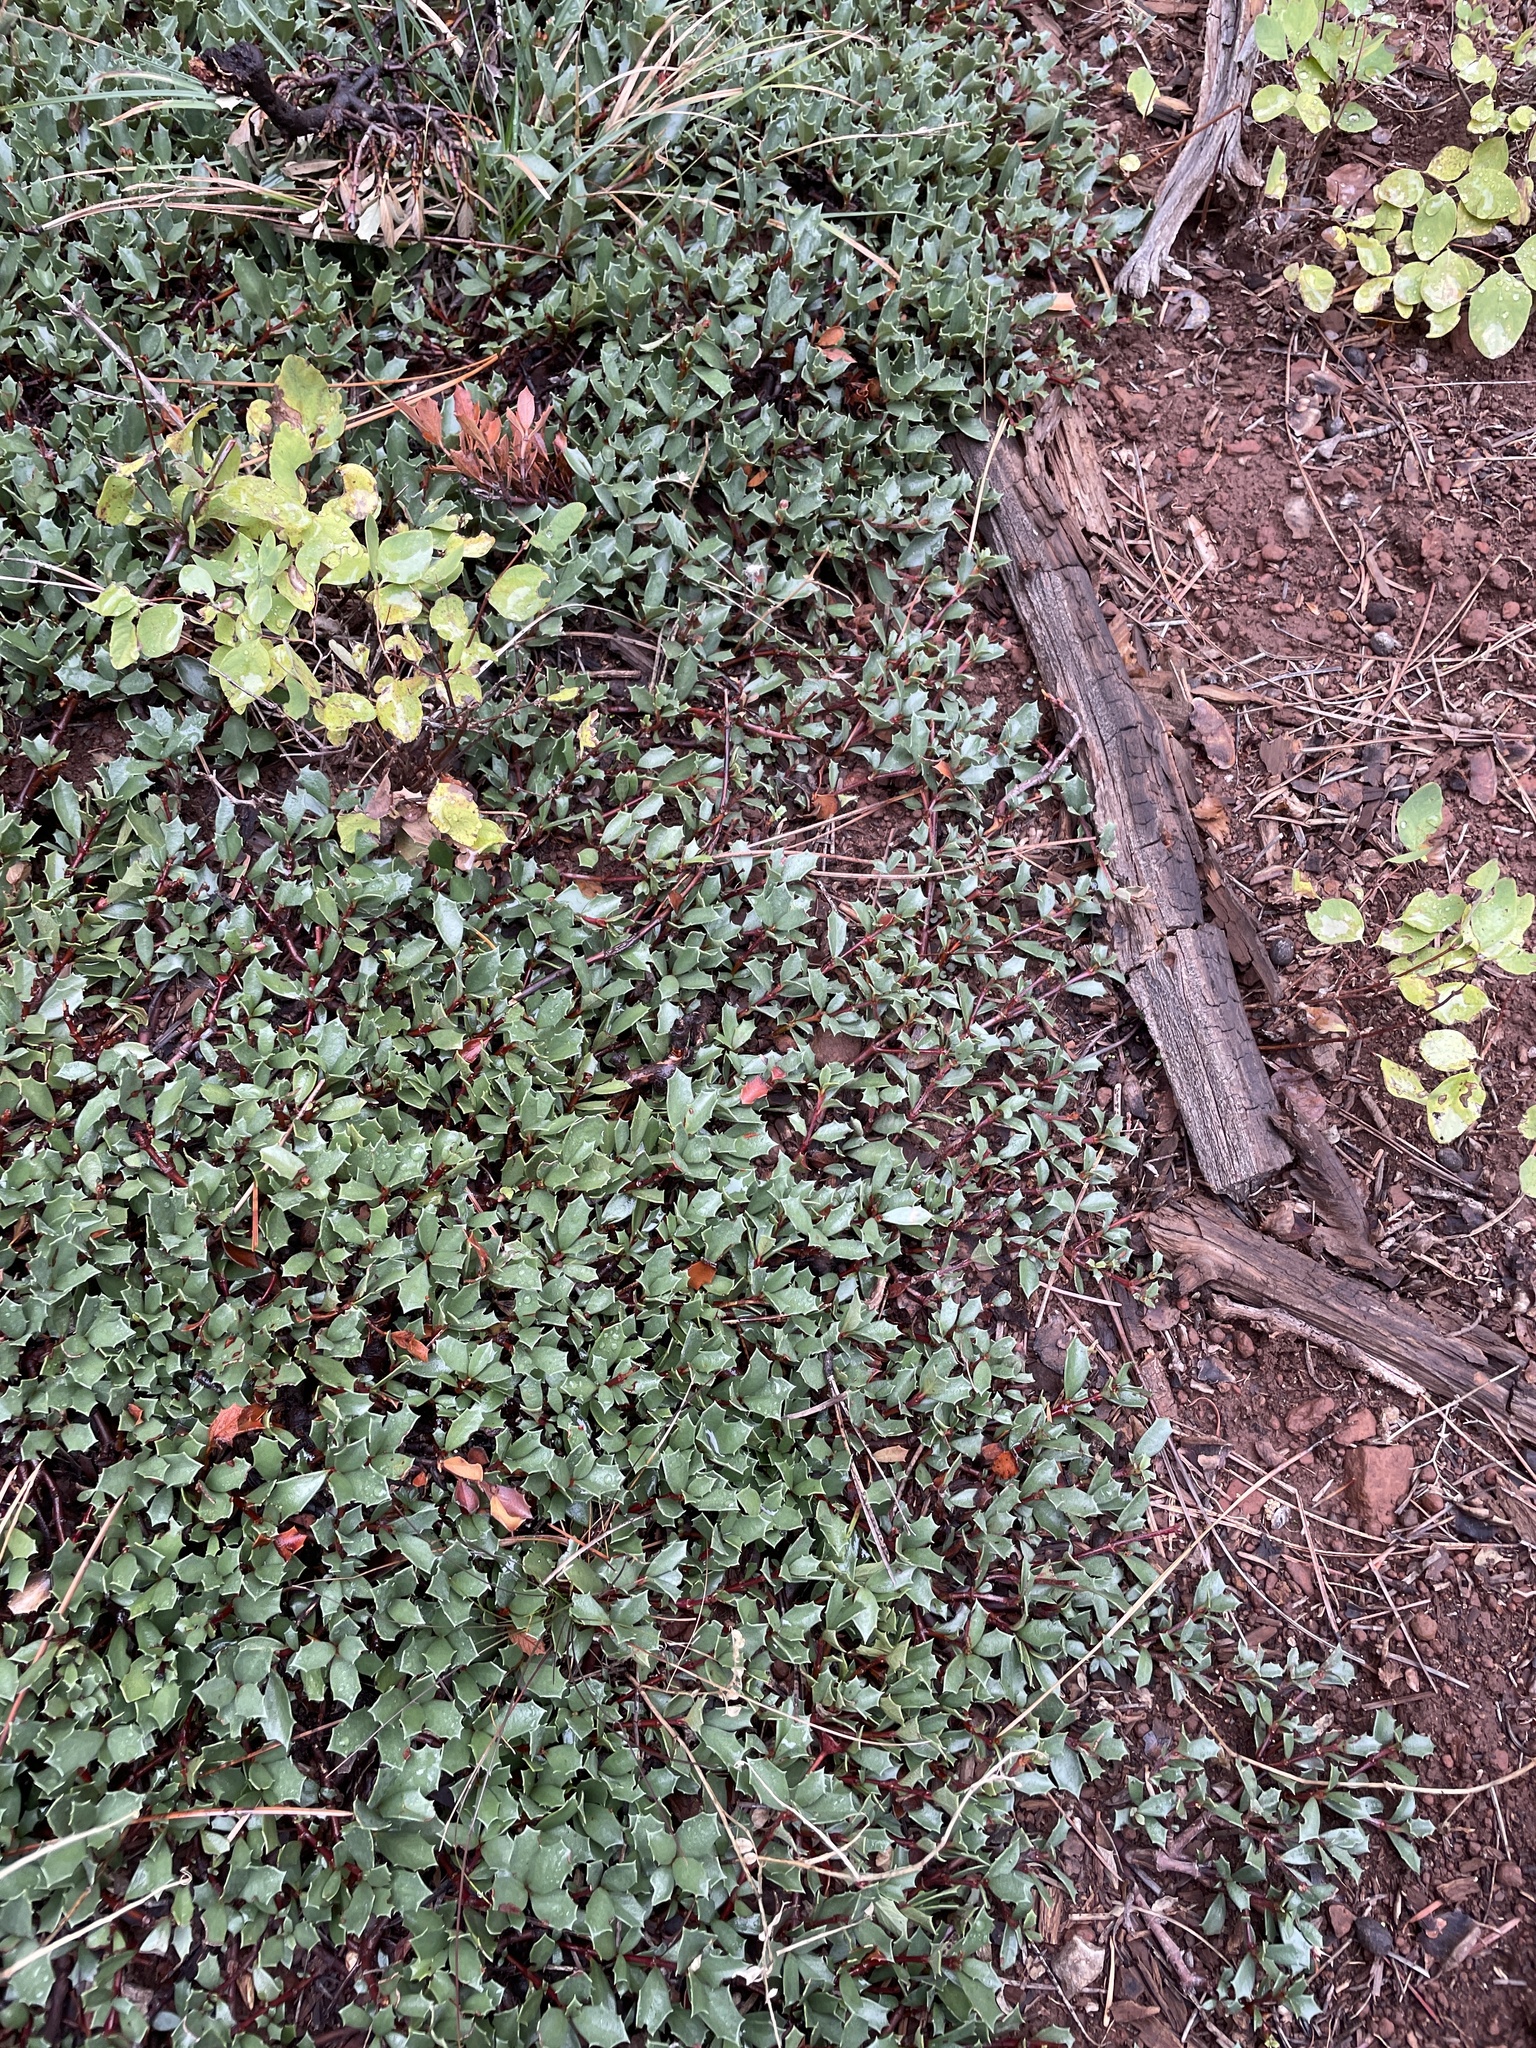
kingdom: Plantae
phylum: Tracheophyta
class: Magnoliopsida
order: Rosales
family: Rhamnaceae
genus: Ceanothus
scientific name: Ceanothus prostratus
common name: Mahala-mat
